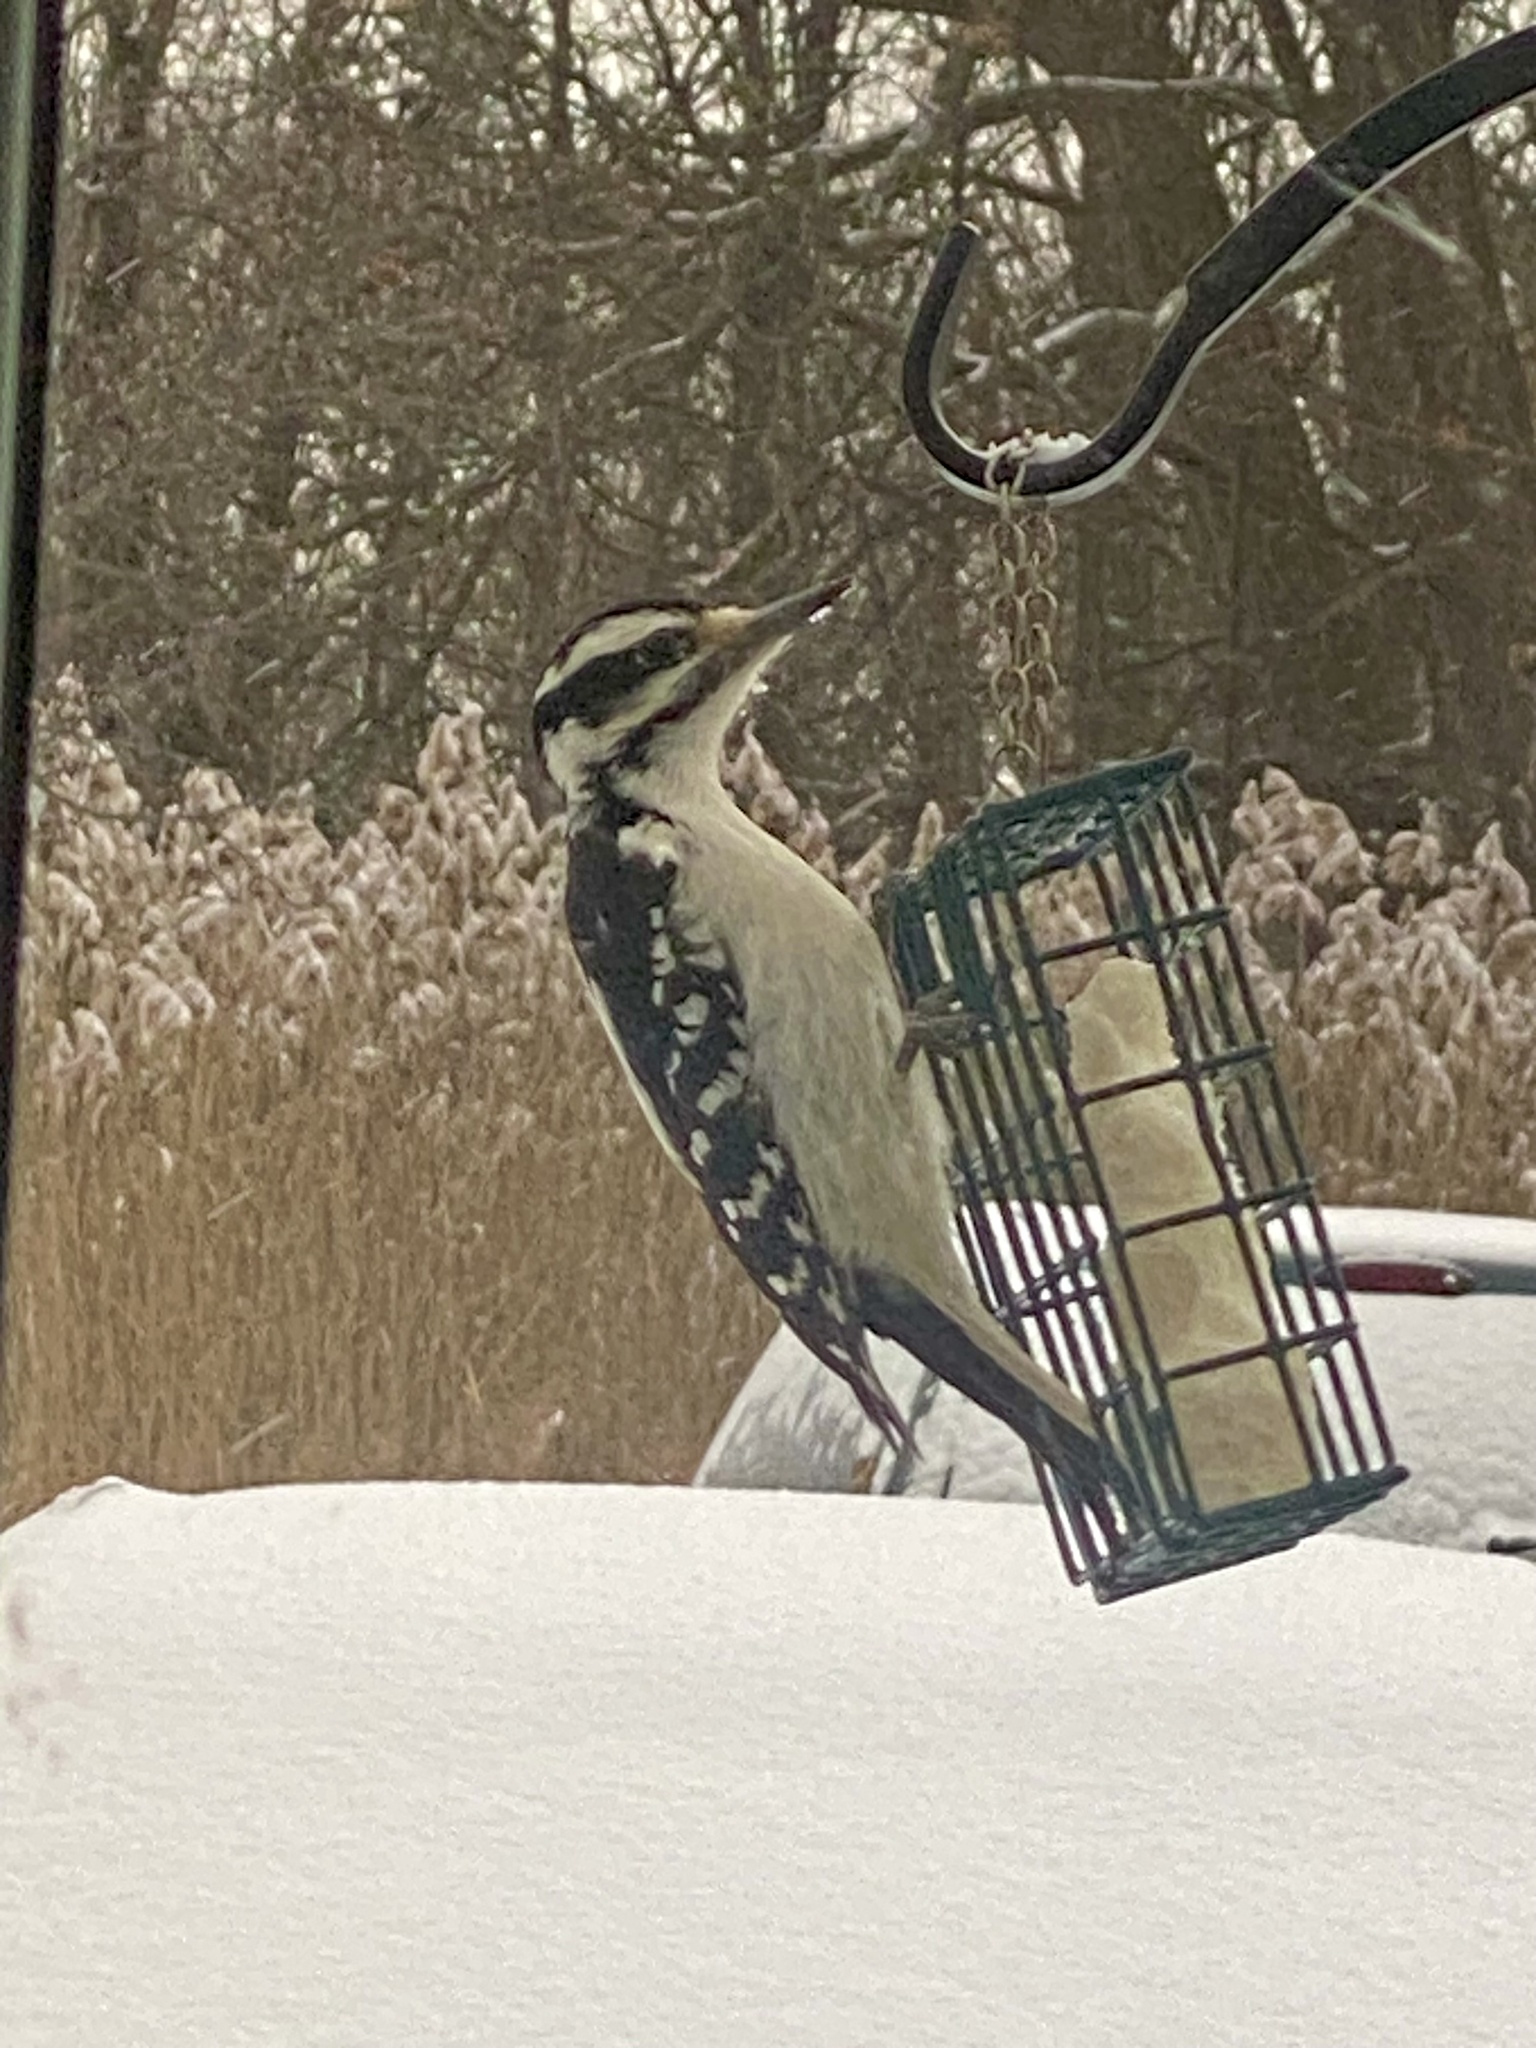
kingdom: Animalia
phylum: Chordata
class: Aves
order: Piciformes
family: Picidae
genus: Leuconotopicus
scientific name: Leuconotopicus villosus
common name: Hairy woodpecker
